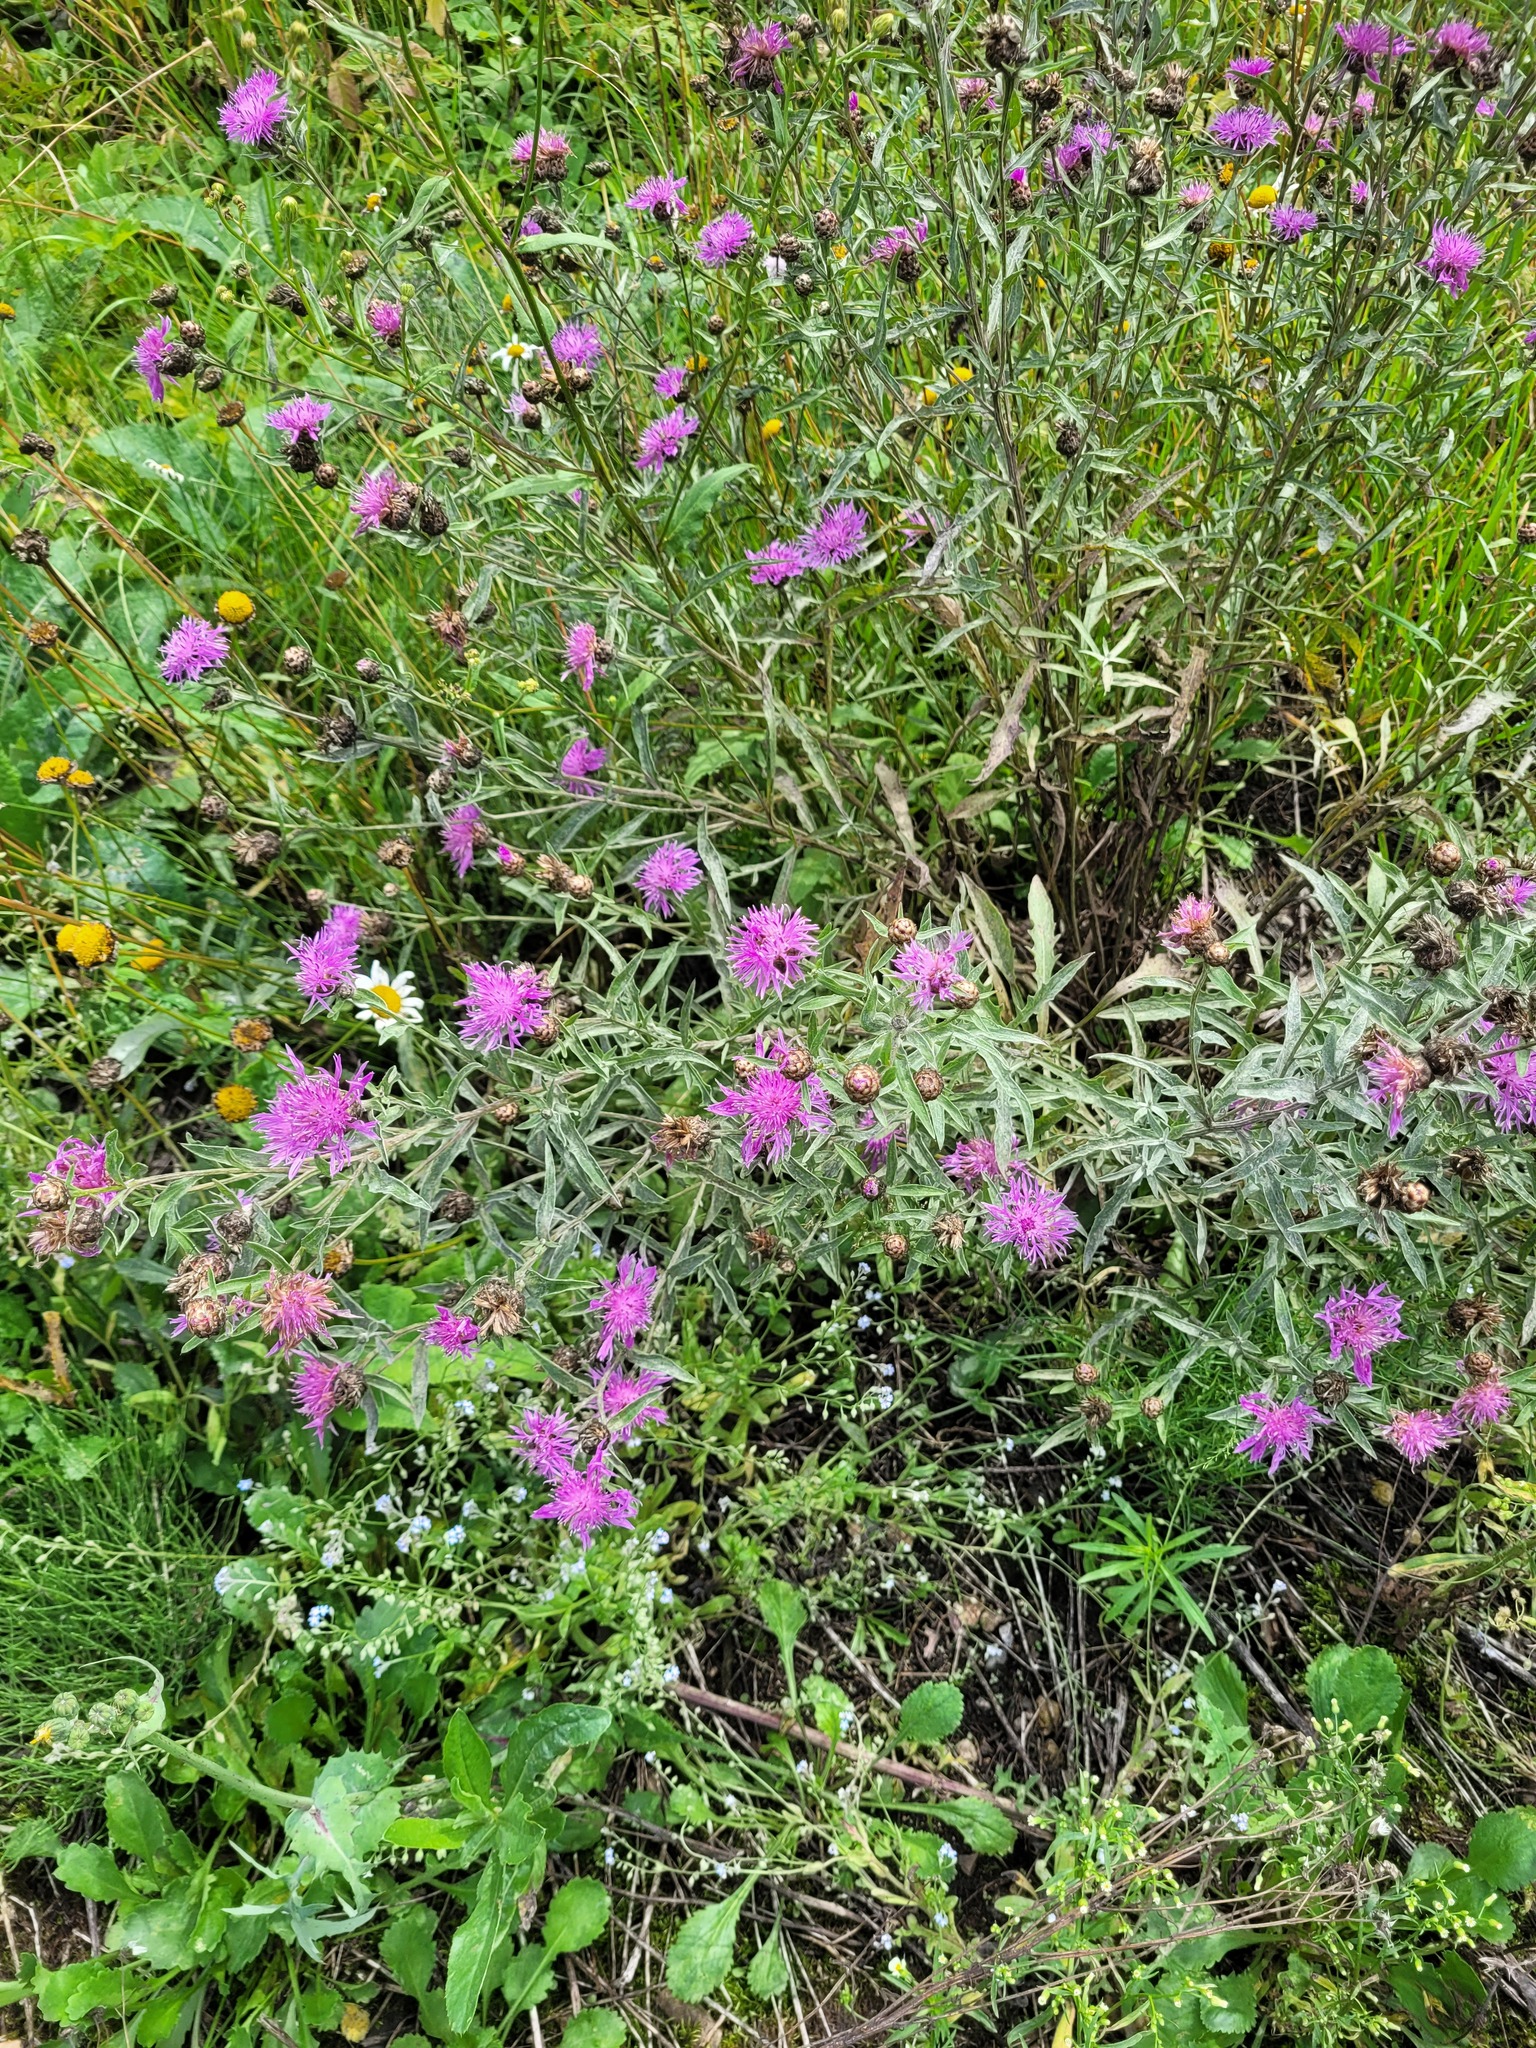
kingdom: Plantae
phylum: Tracheophyta
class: Magnoliopsida
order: Asterales
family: Asteraceae
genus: Centaurea
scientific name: Centaurea jacea
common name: Brown knapweed
